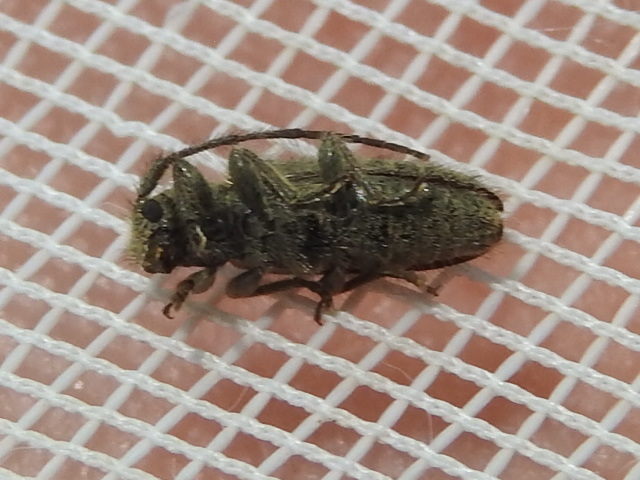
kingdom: Animalia
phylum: Arthropoda
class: Insecta
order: Coleoptera
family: Cerambycidae
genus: Eupogonius
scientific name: Eupogonius pauper
